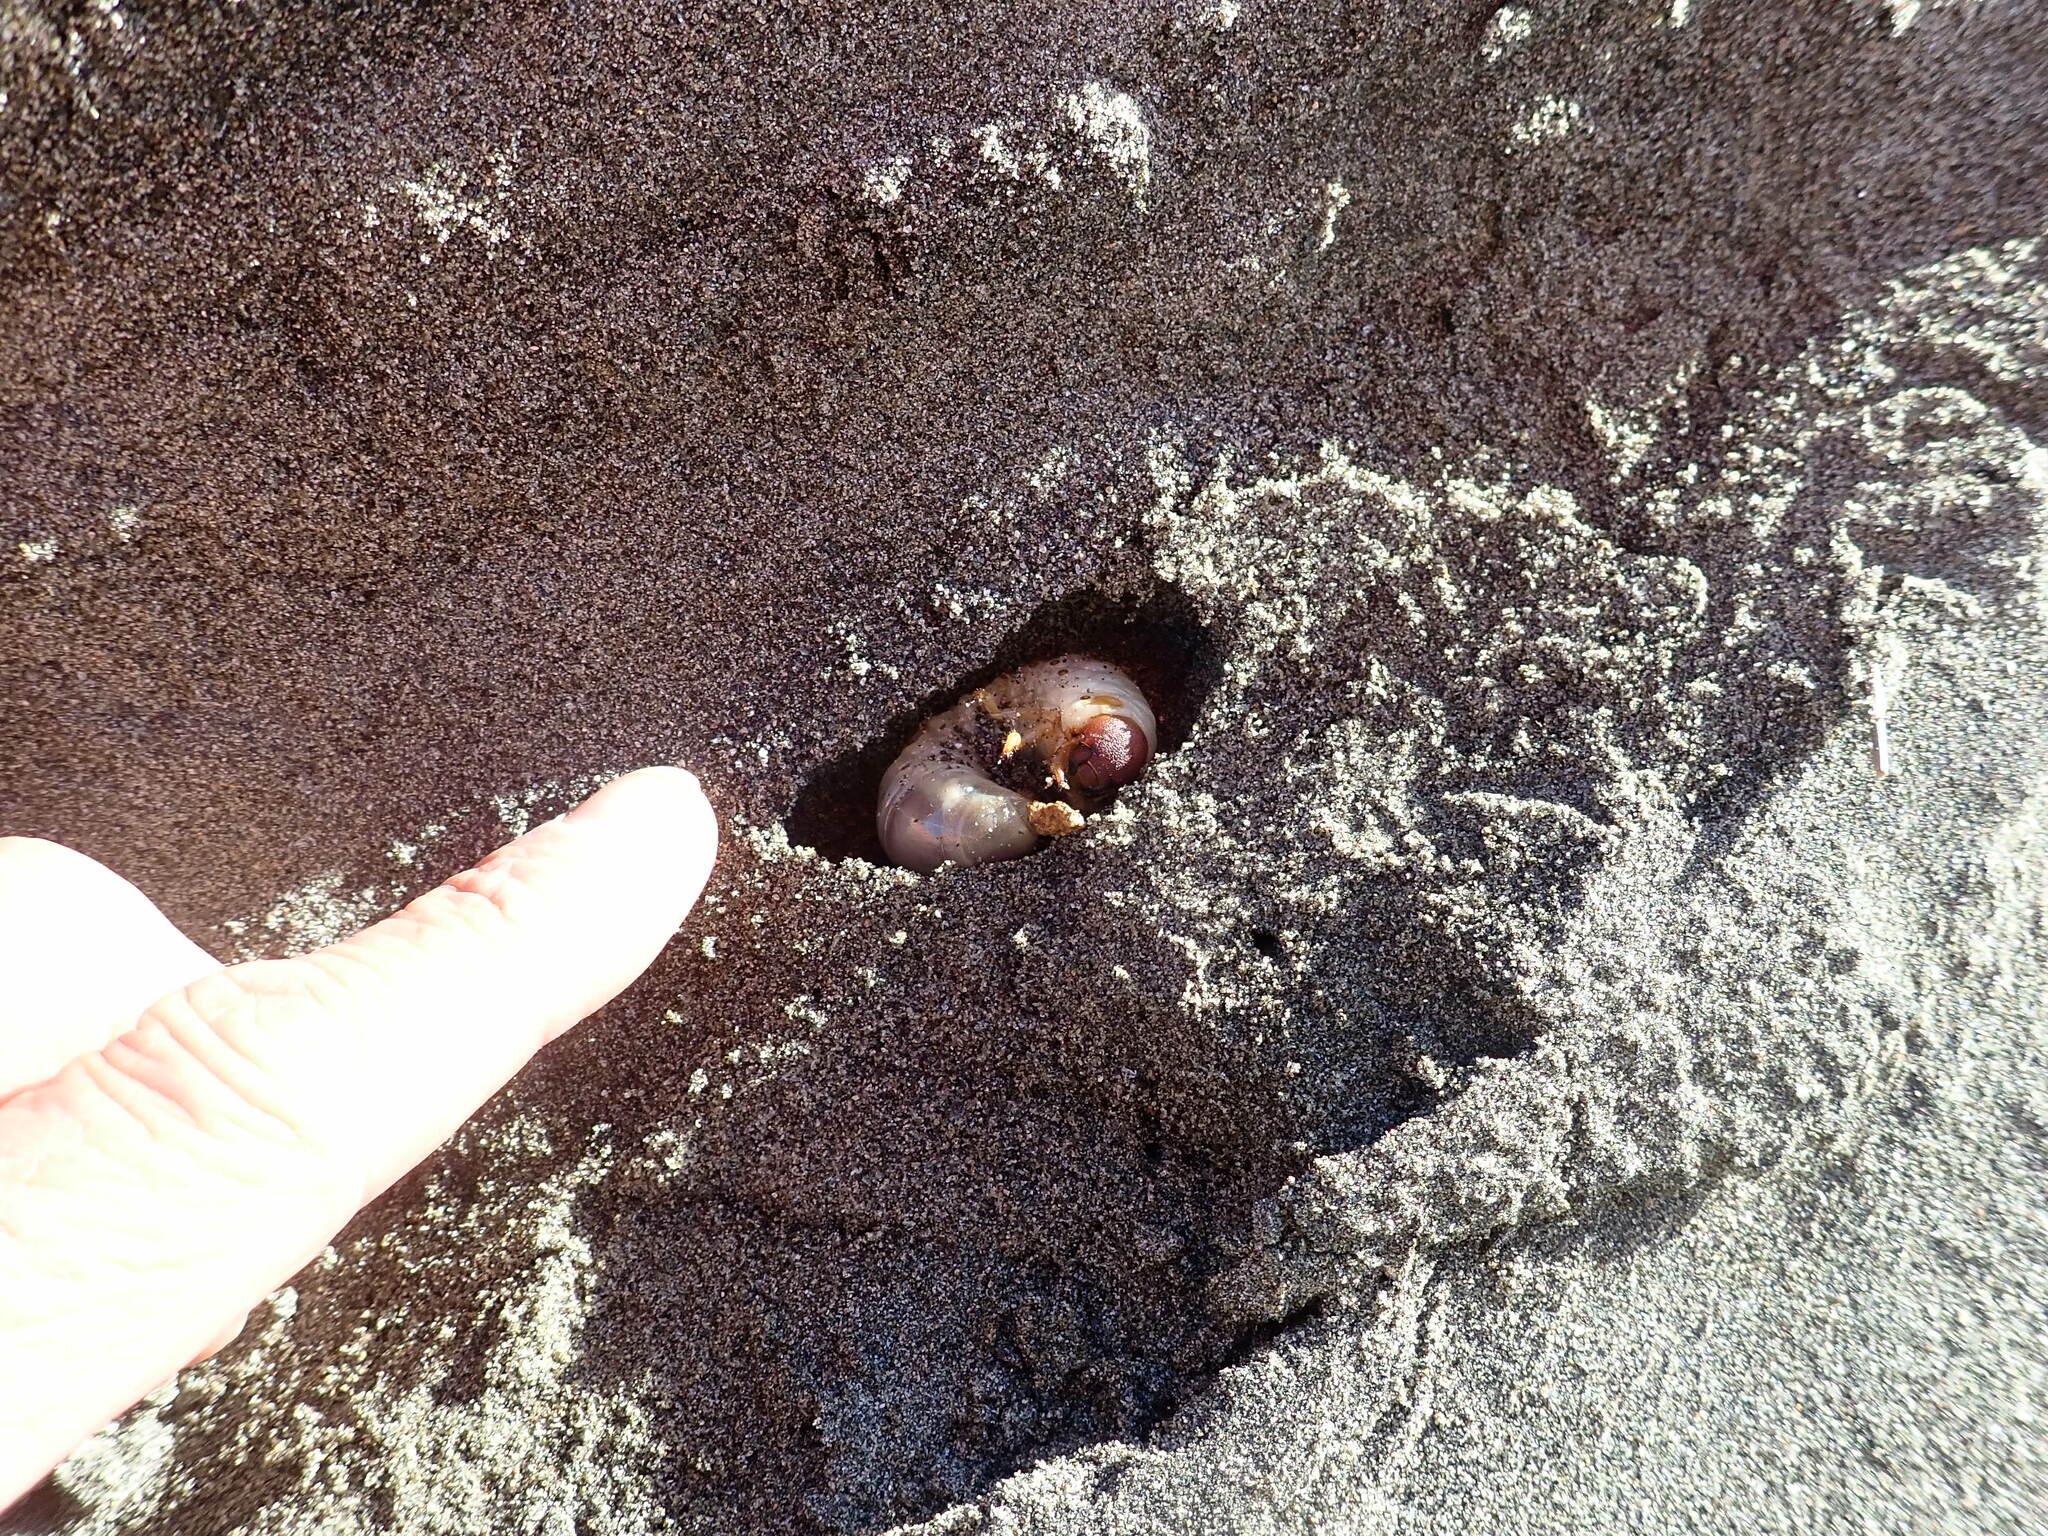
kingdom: Animalia
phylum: Arthropoda
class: Insecta
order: Coleoptera
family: Scarabaeidae
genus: Pericoptus
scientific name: Pericoptus truncatus
